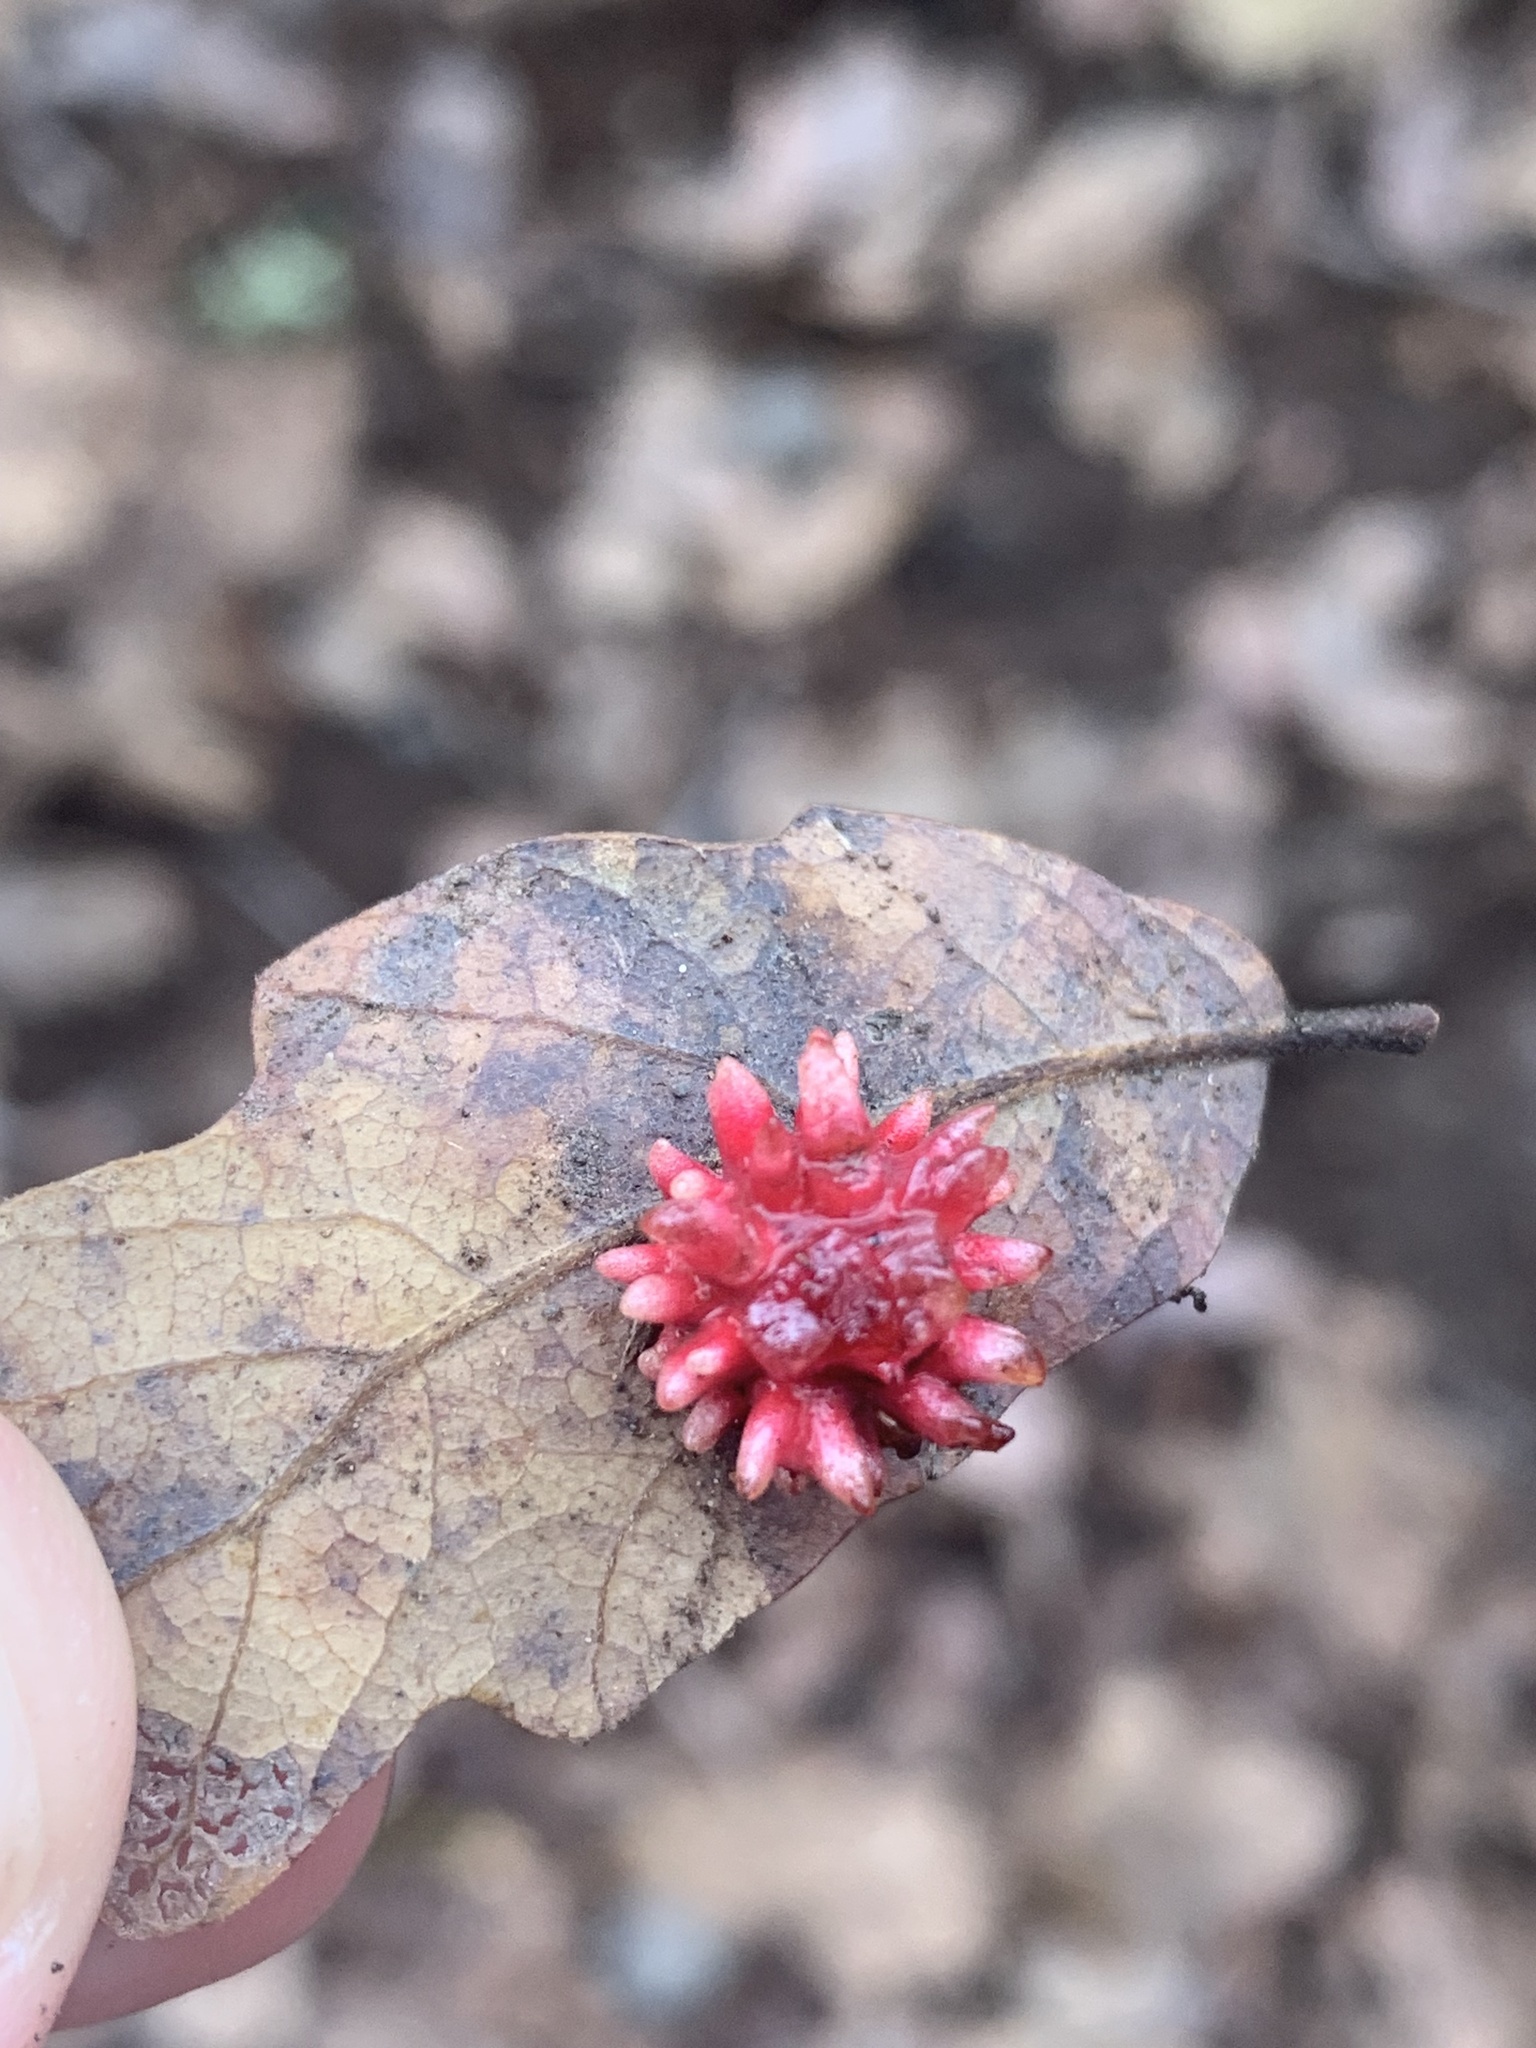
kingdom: Animalia
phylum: Arthropoda
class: Insecta
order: Hymenoptera
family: Cynipidae
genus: Cynips
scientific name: Cynips
